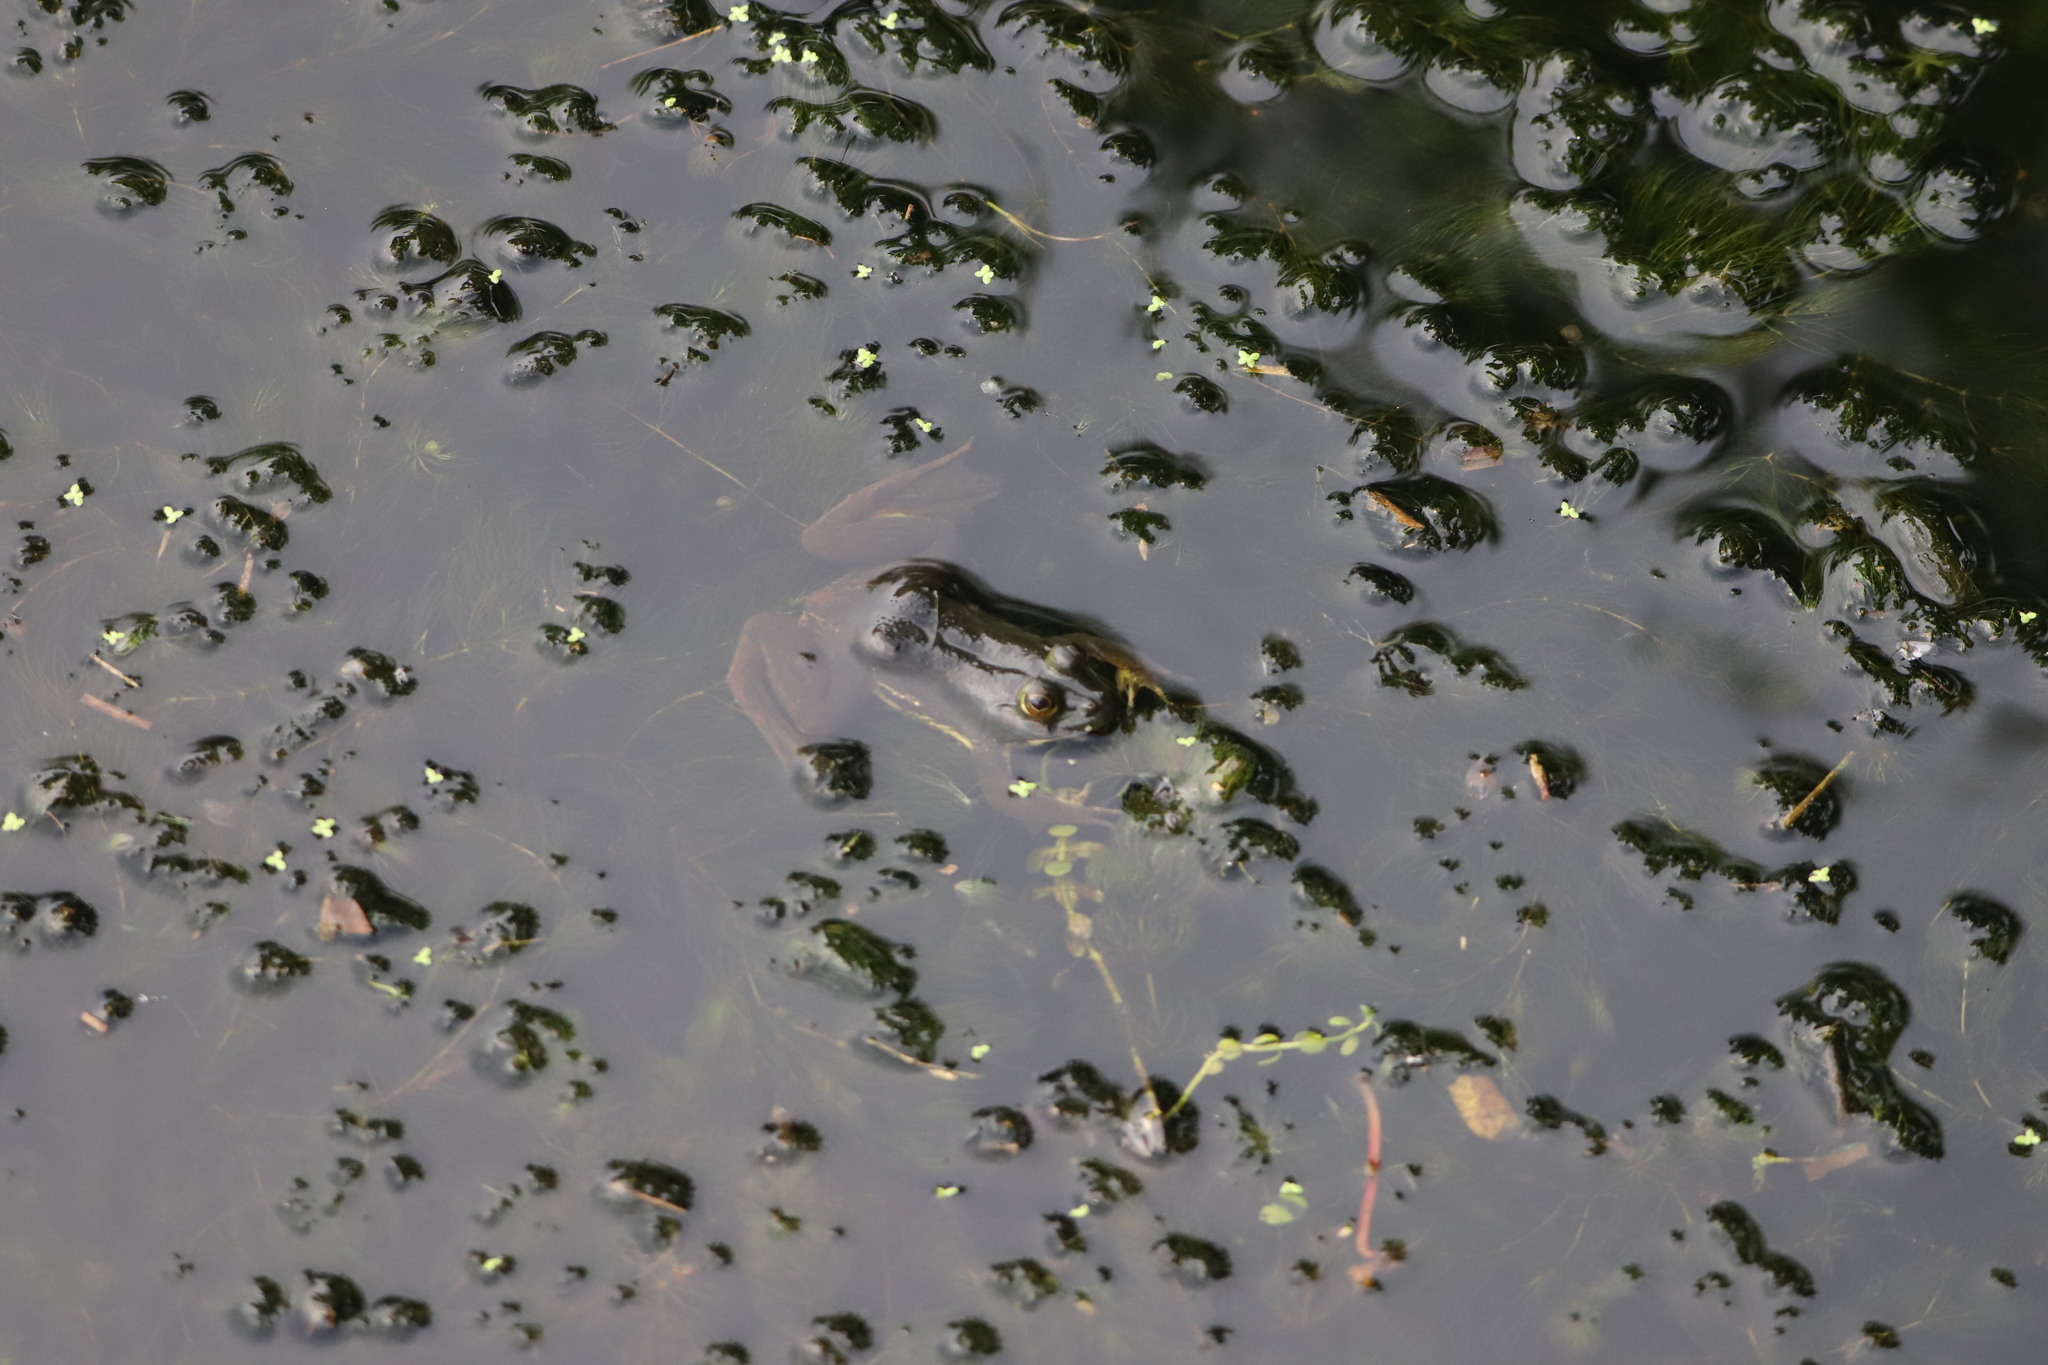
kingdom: Animalia
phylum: Chordata
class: Amphibia
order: Anura
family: Dicroglossidae
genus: Euphlyctis
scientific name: Euphlyctis hexadactylus
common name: Indian green frog
